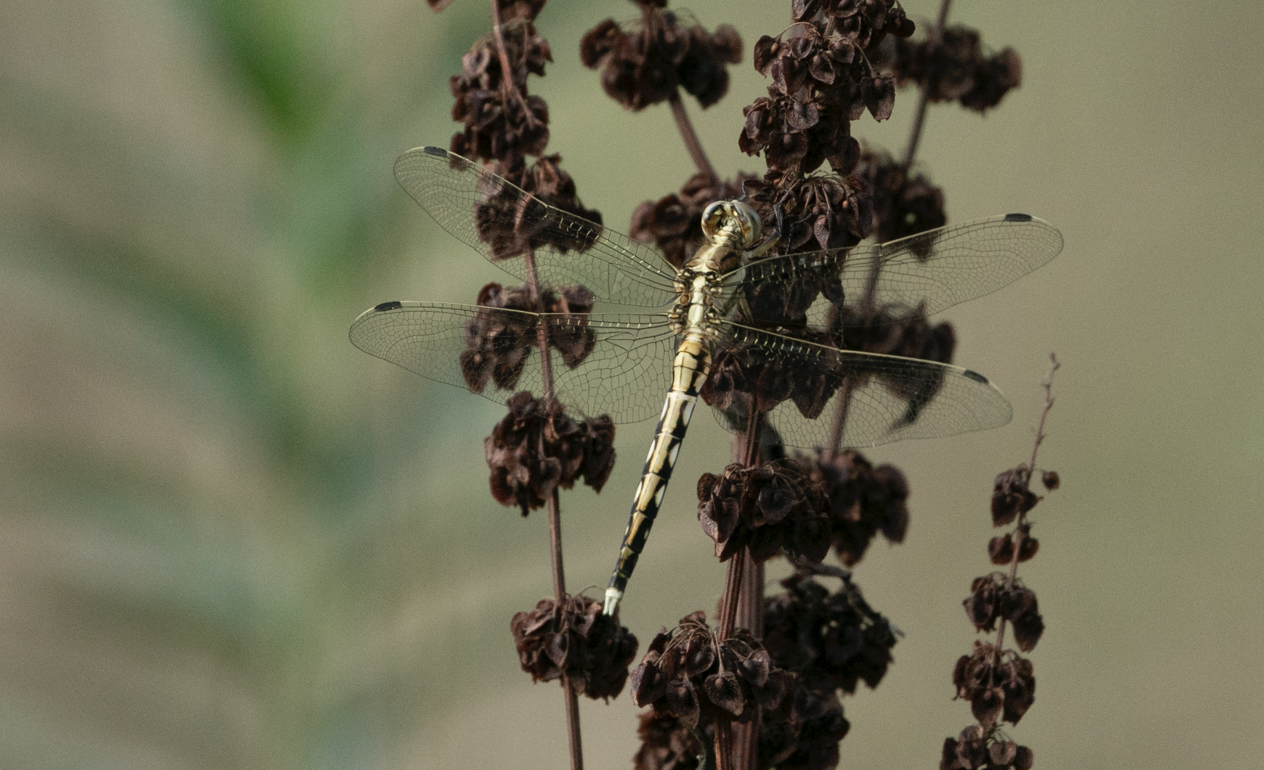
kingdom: Animalia
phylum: Arthropoda
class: Insecta
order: Odonata
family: Libellulidae
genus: Orthetrum
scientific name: Orthetrum albistylum
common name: White-tailed skimmer
